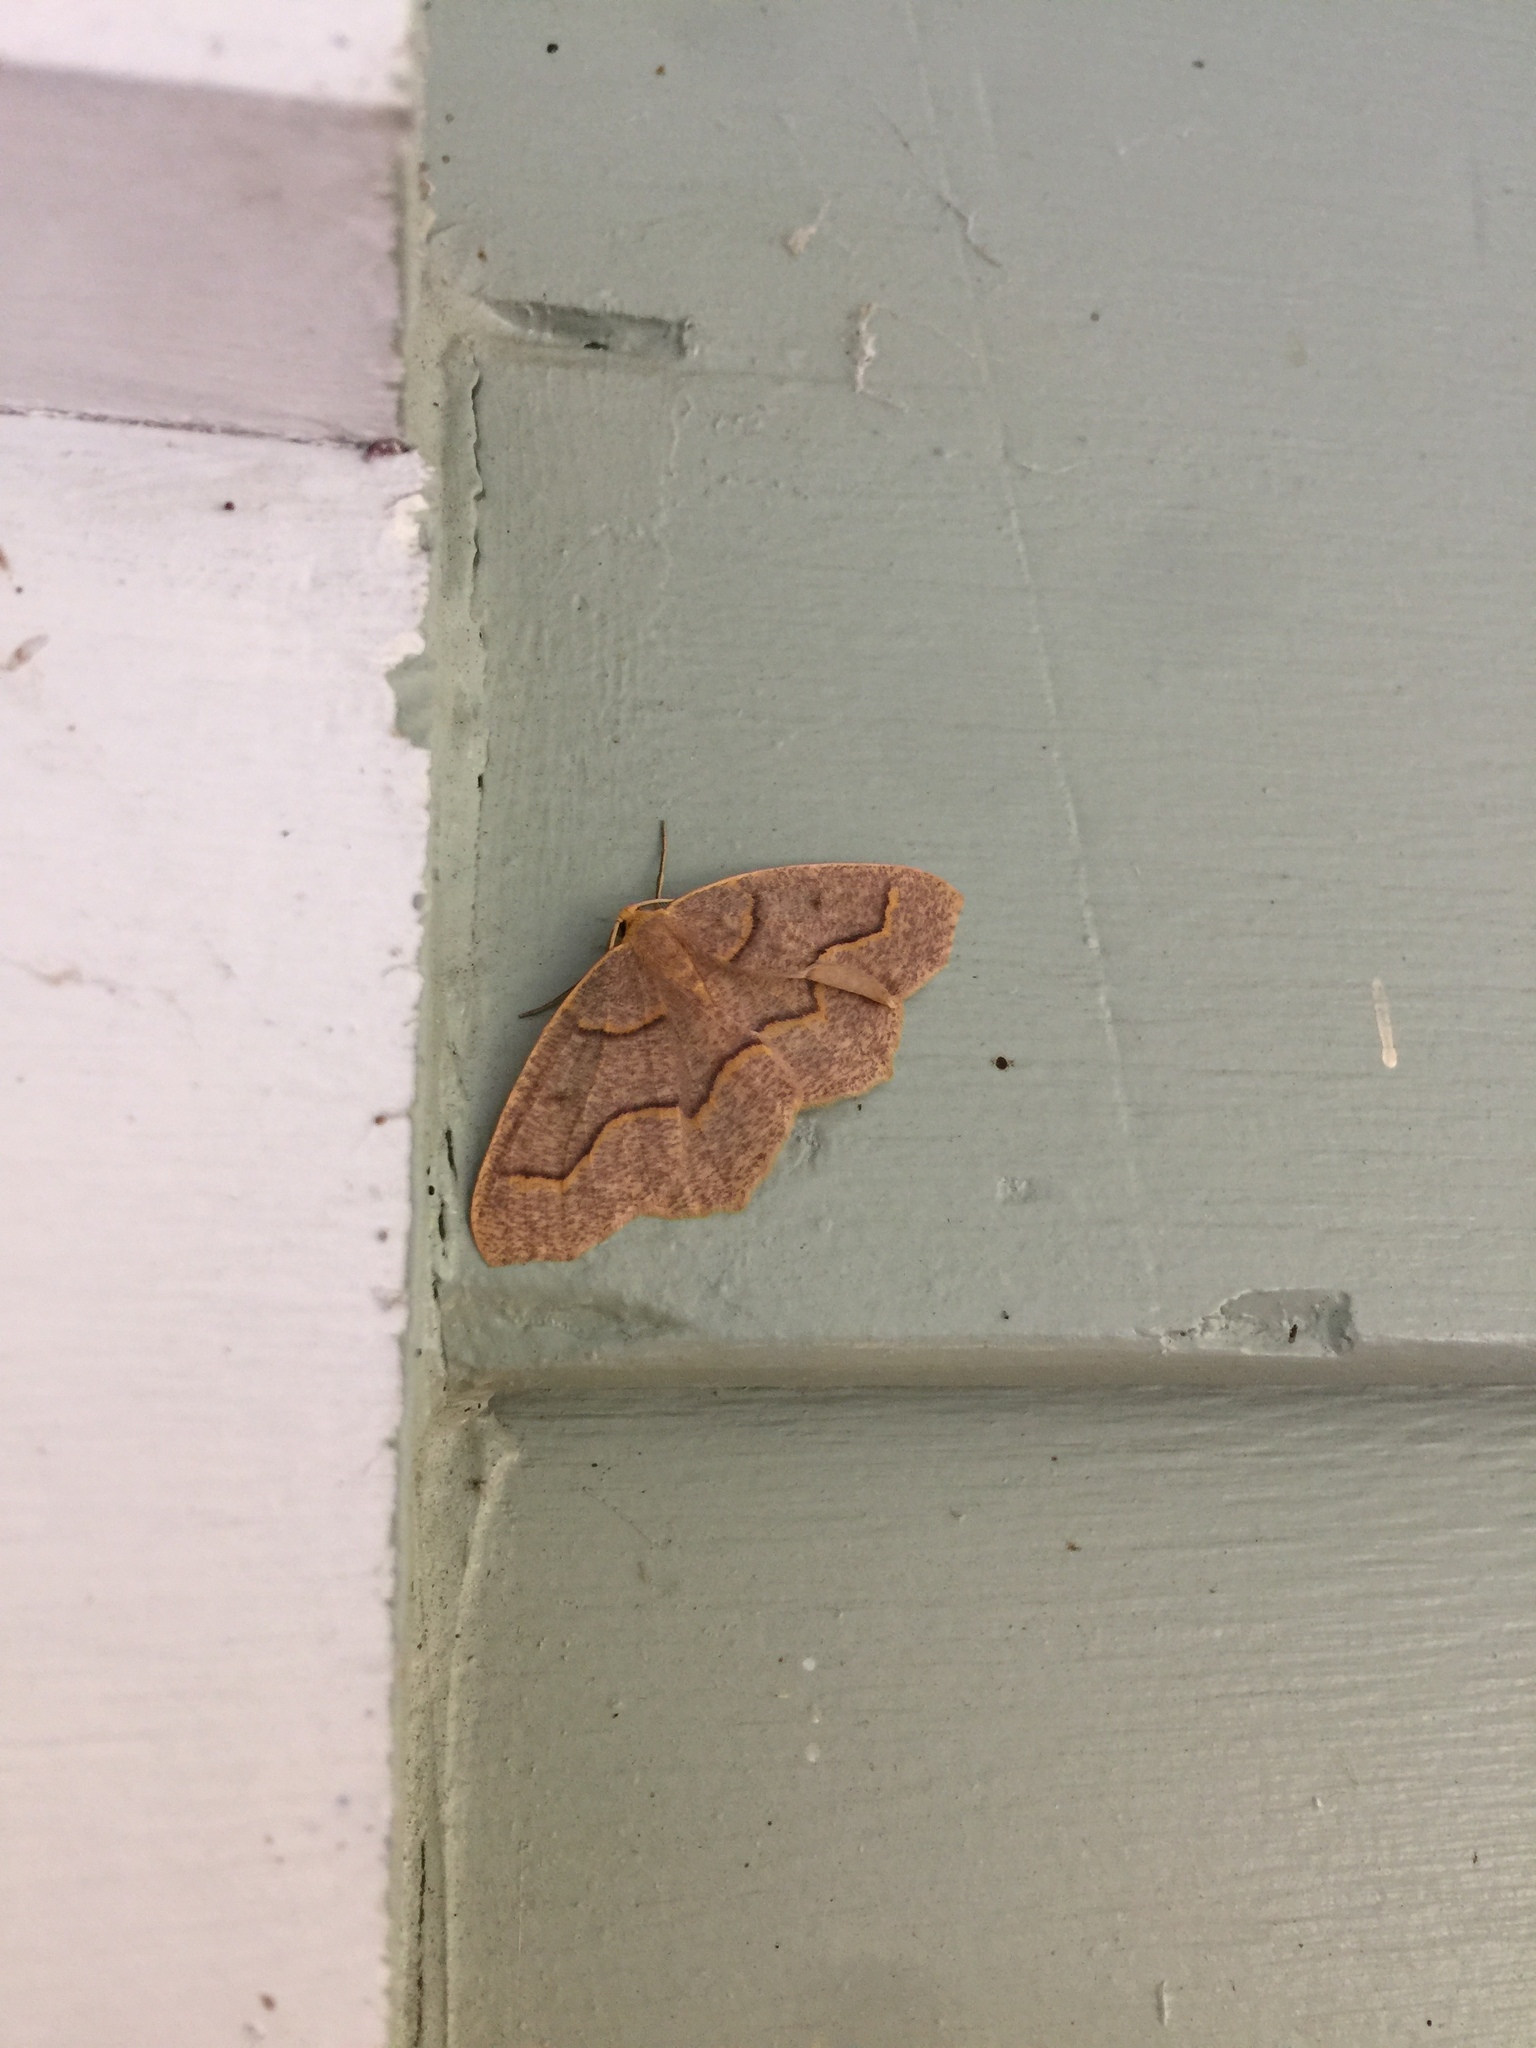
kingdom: Animalia
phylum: Arthropoda
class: Insecta
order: Lepidoptera
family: Geometridae
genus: Lambdina
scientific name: Lambdina fiscellaria
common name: Hemlock looper
